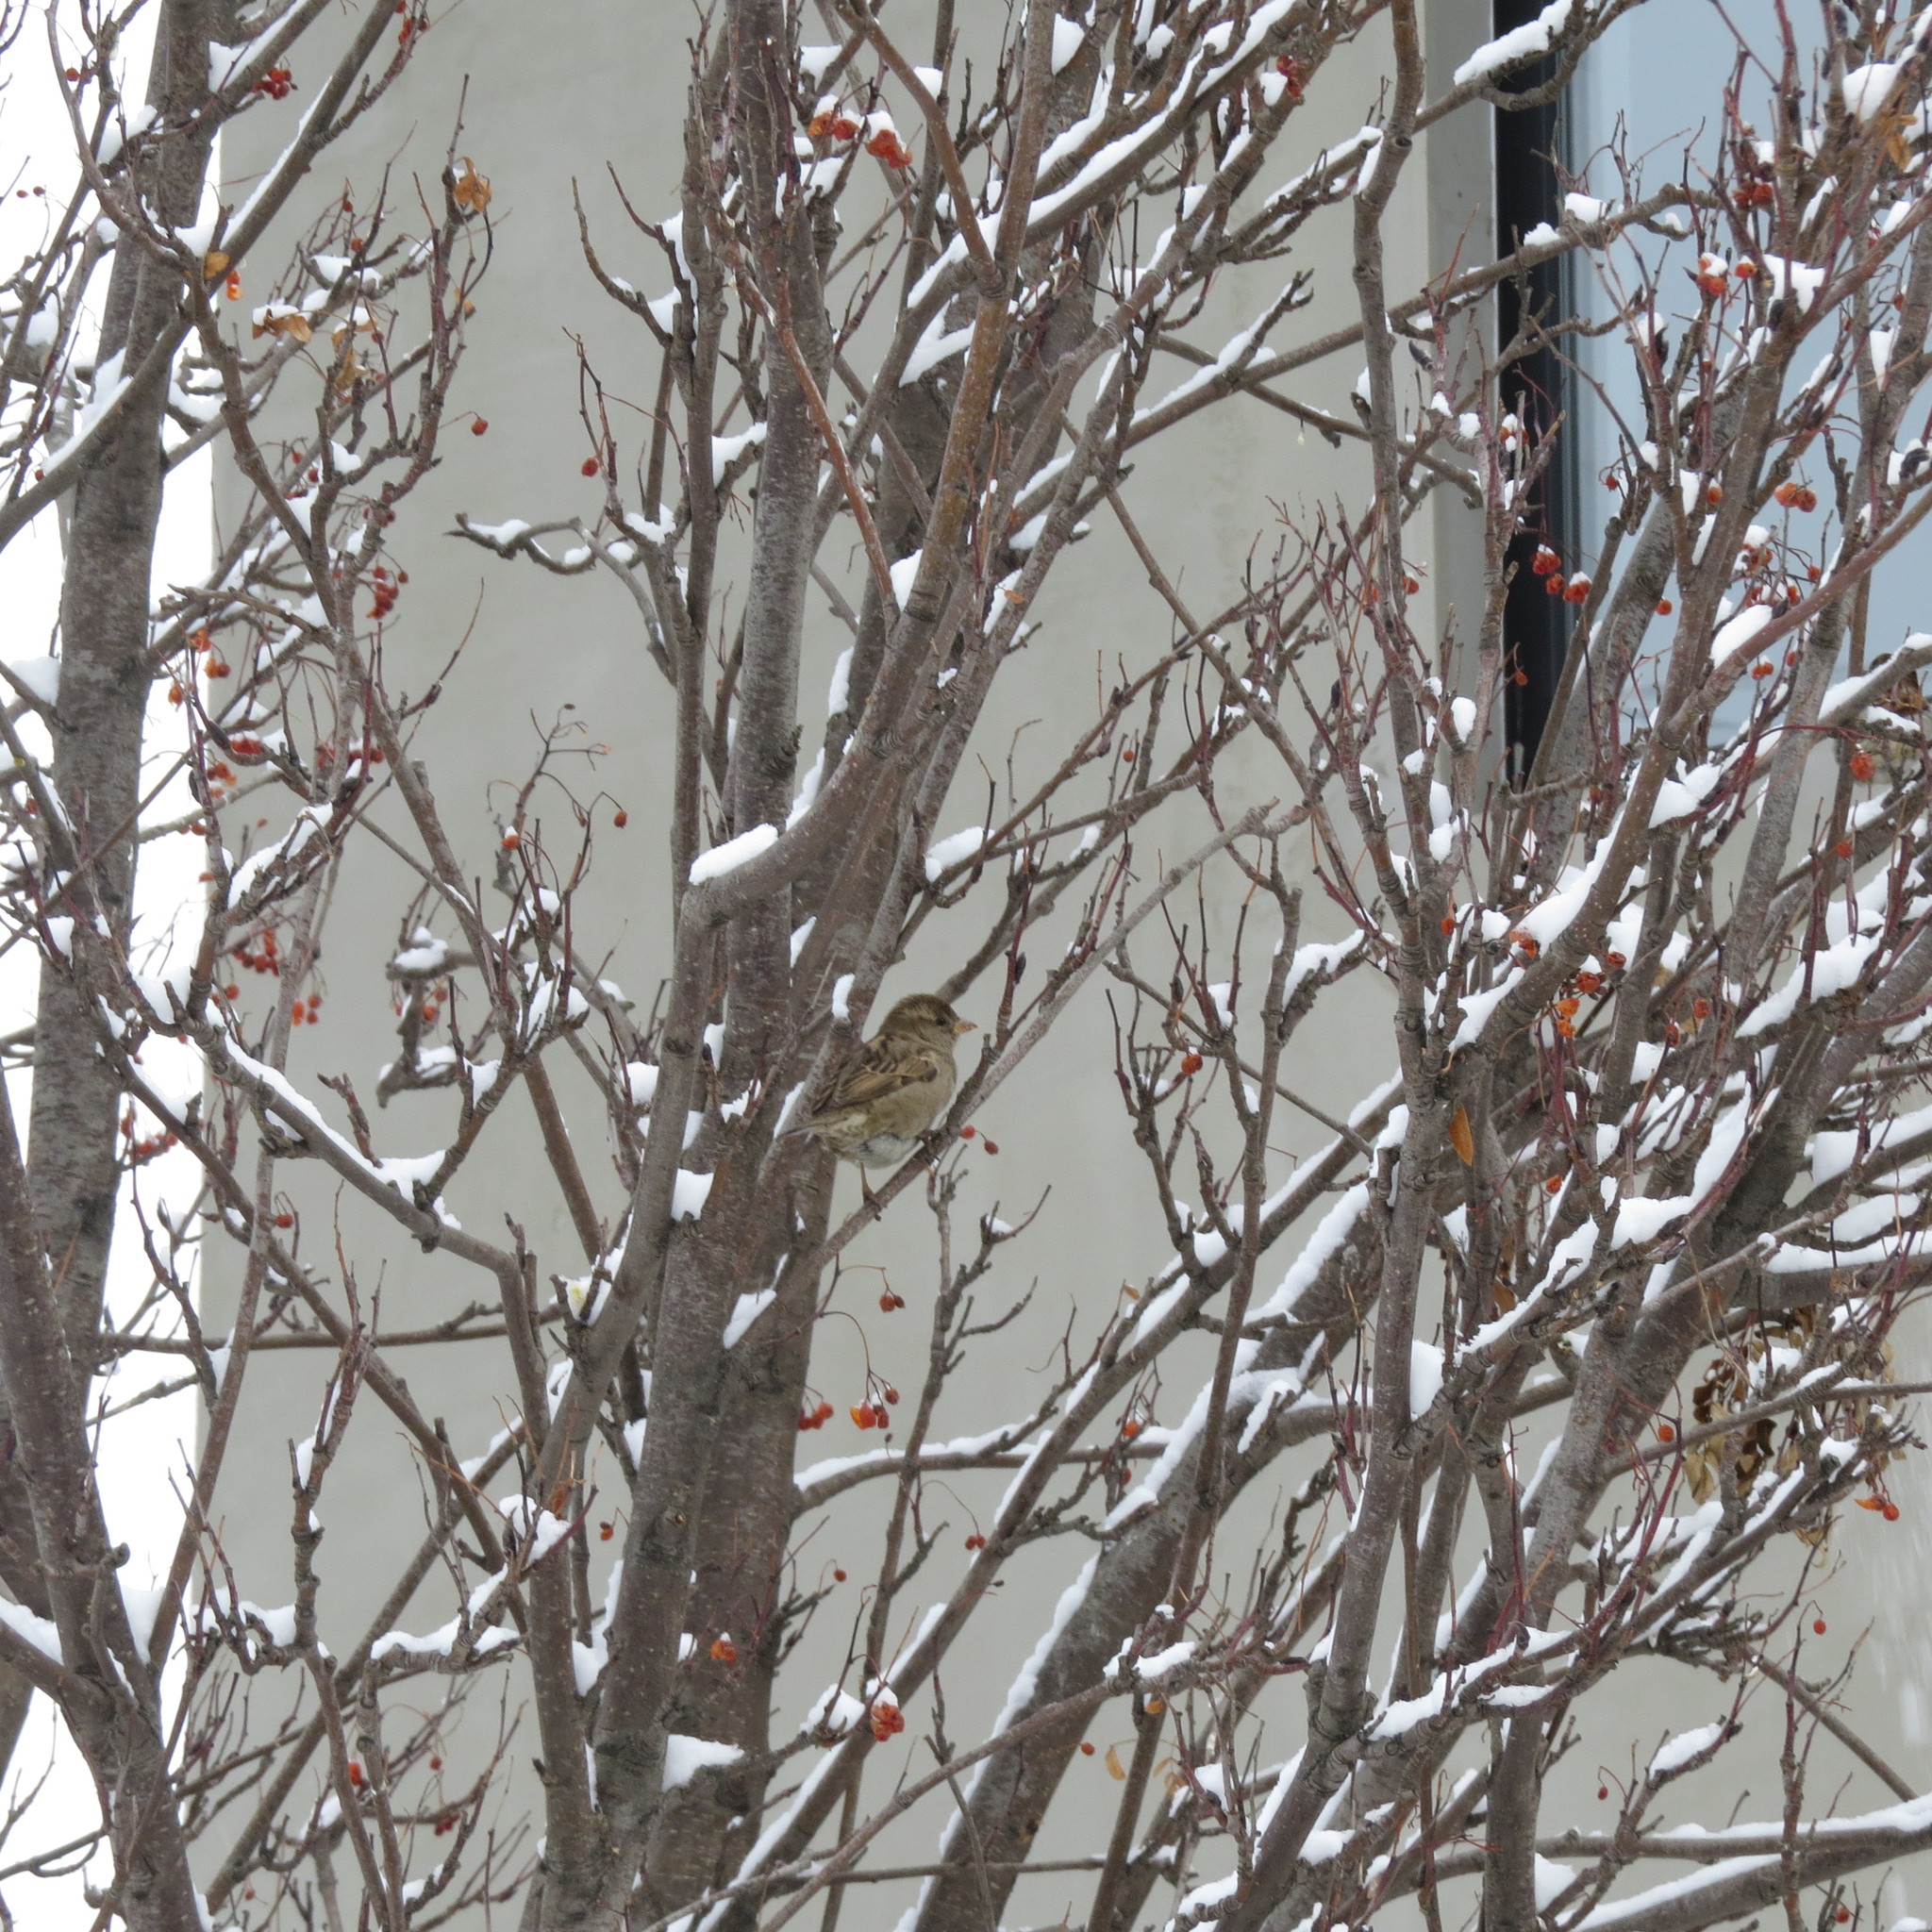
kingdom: Animalia
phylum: Chordata
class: Aves
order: Passeriformes
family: Passeridae
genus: Passer
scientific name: Passer domesticus
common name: House sparrow
